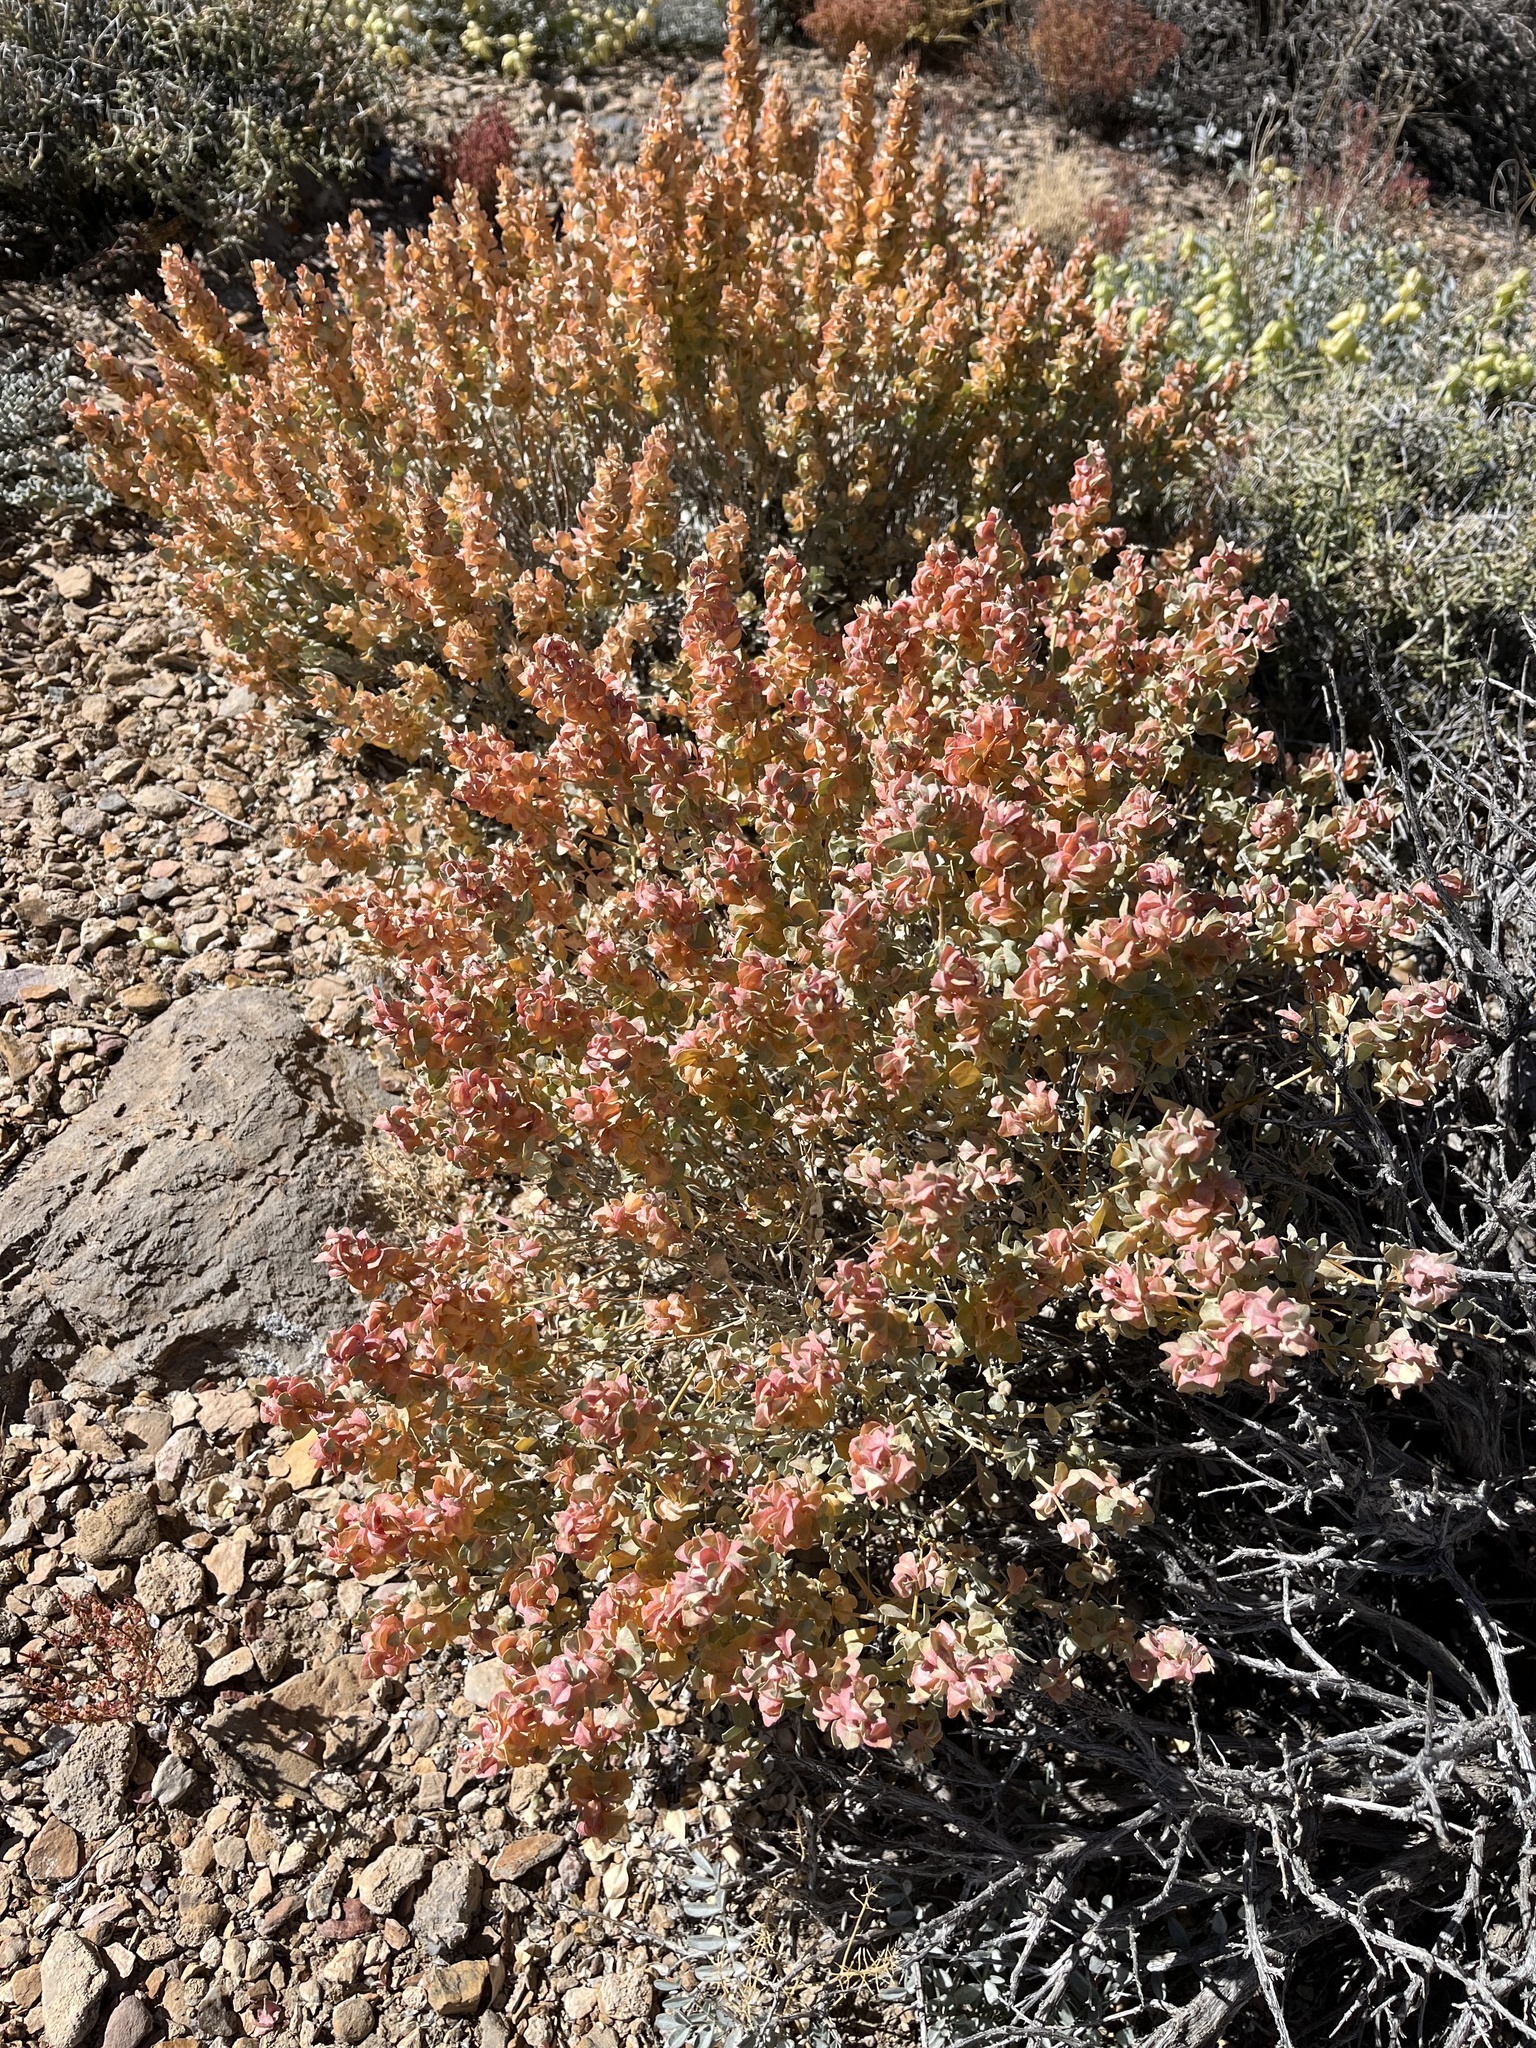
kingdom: Plantae
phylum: Tracheophyta
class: Magnoliopsida
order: Caryophyllales
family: Amaranthaceae
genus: Grayia
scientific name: Grayia spinosa
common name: Spiny hopsage
